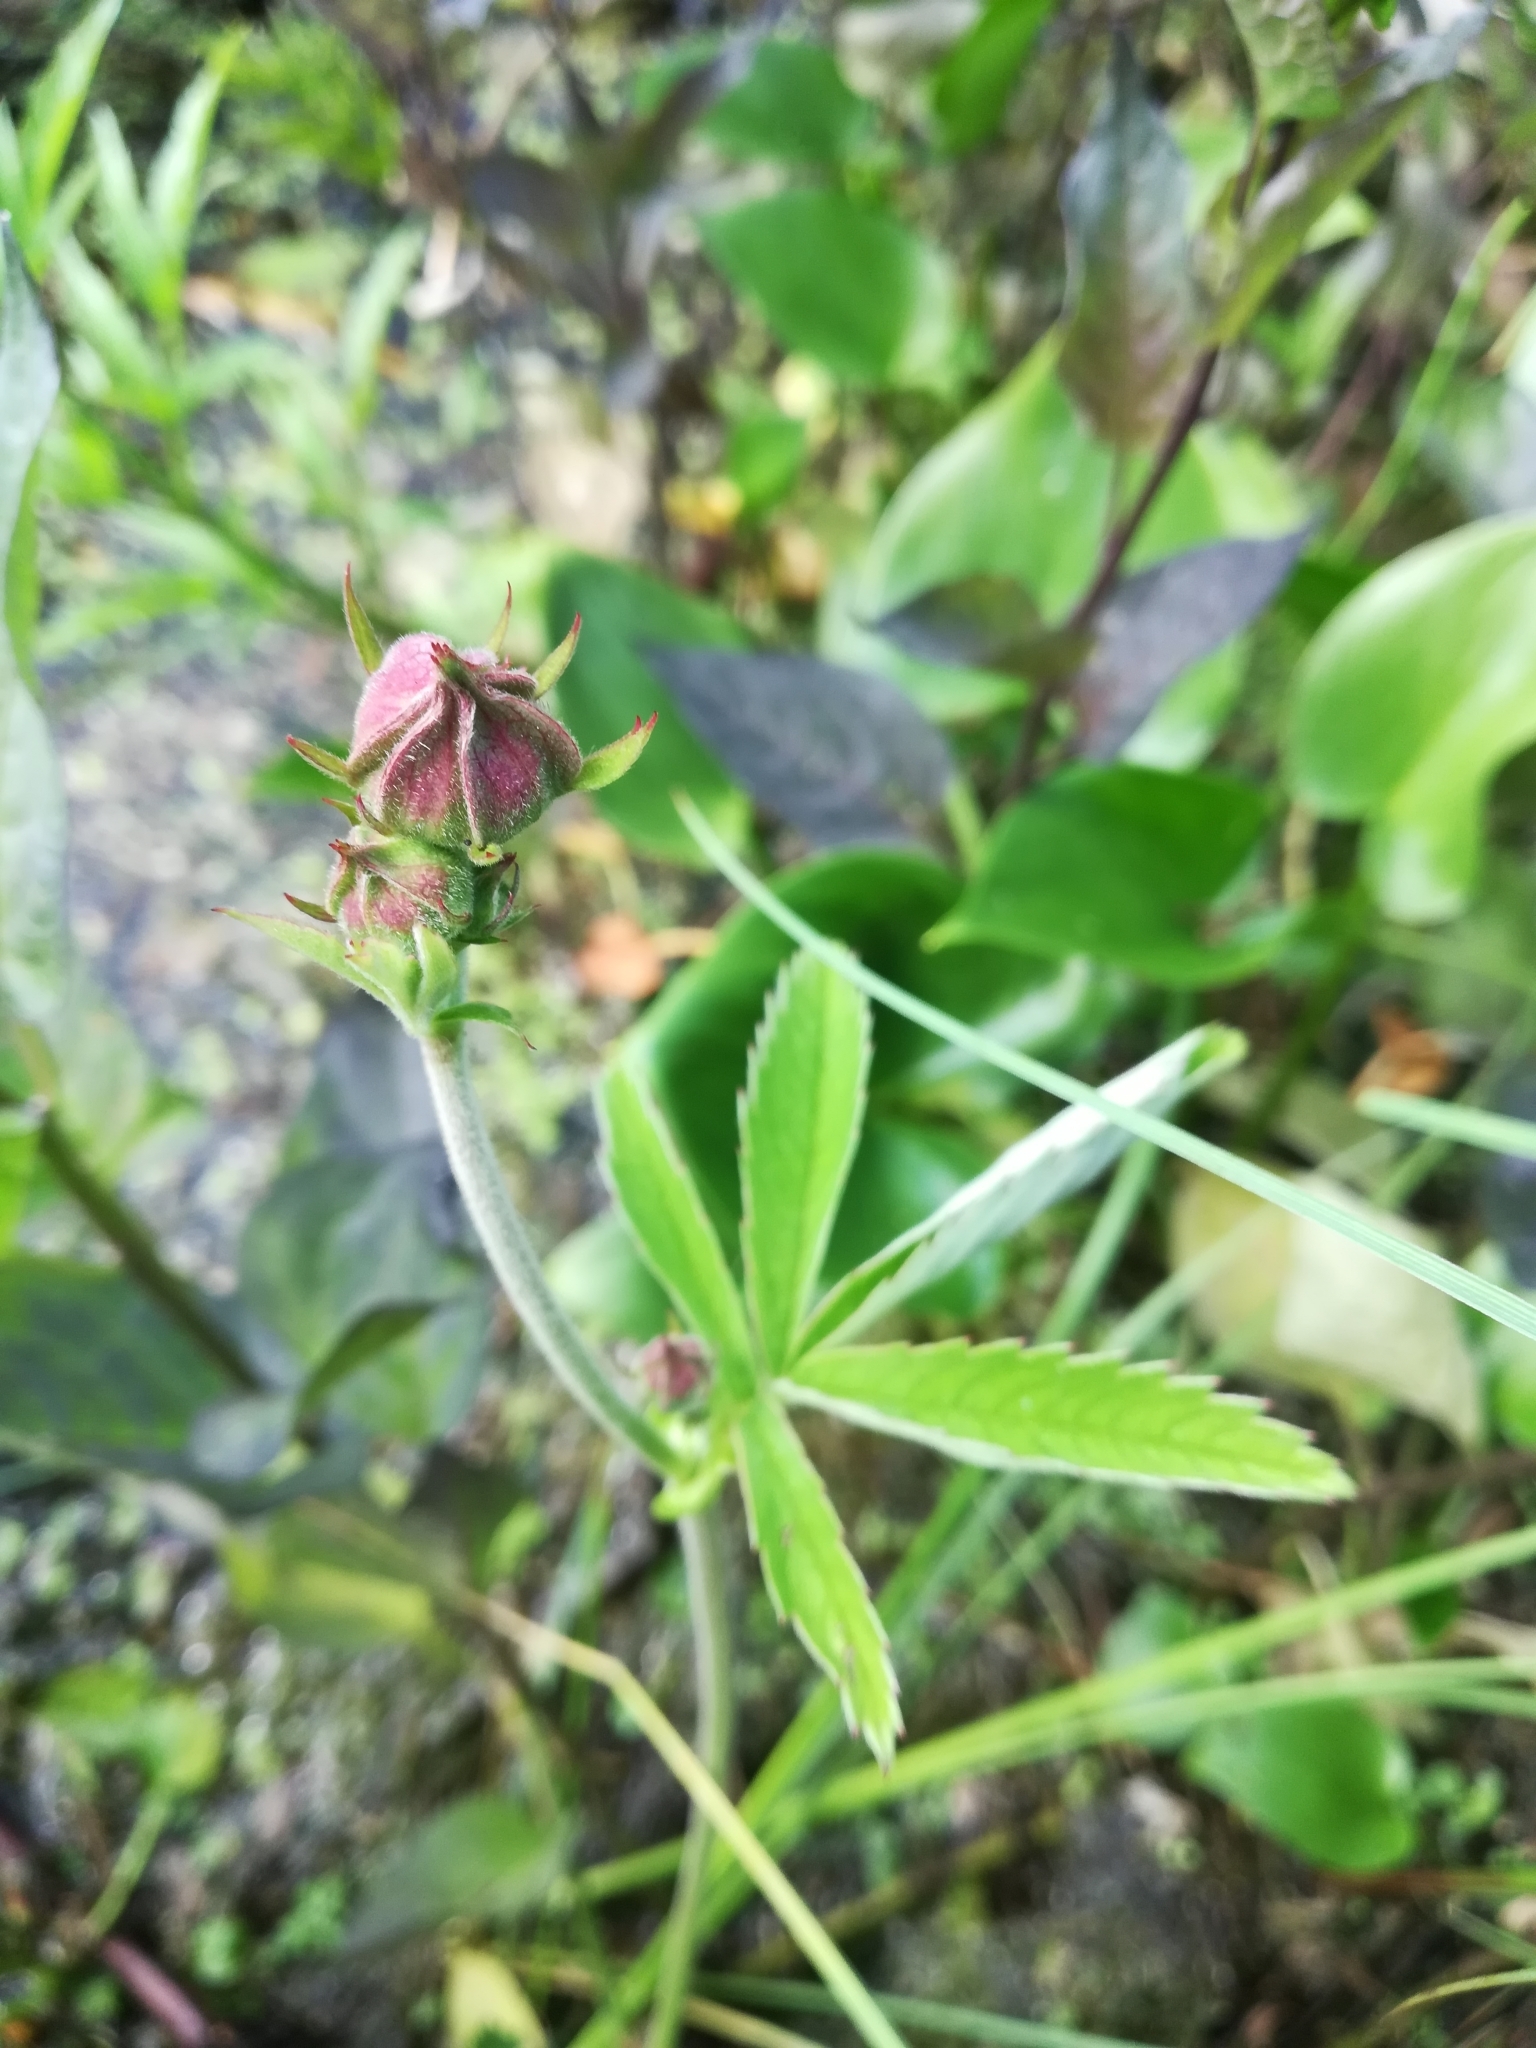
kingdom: Plantae
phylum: Tracheophyta
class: Magnoliopsida
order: Rosales
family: Rosaceae
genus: Comarum
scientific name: Comarum palustre
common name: Marsh cinquefoil
